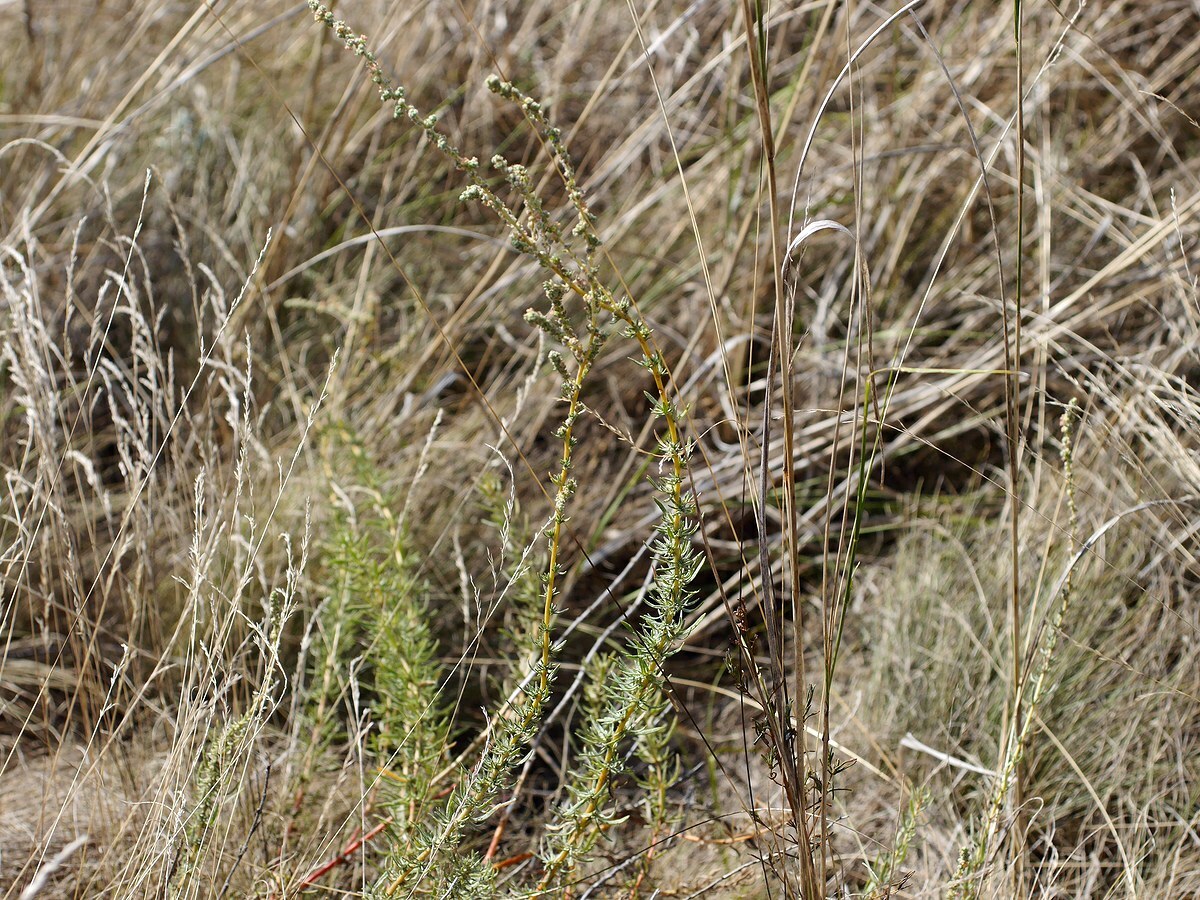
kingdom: Plantae
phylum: Tracheophyta
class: Magnoliopsida
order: Caryophyllales
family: Amaranthaceae
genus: Bassia
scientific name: Bassia prostrata
